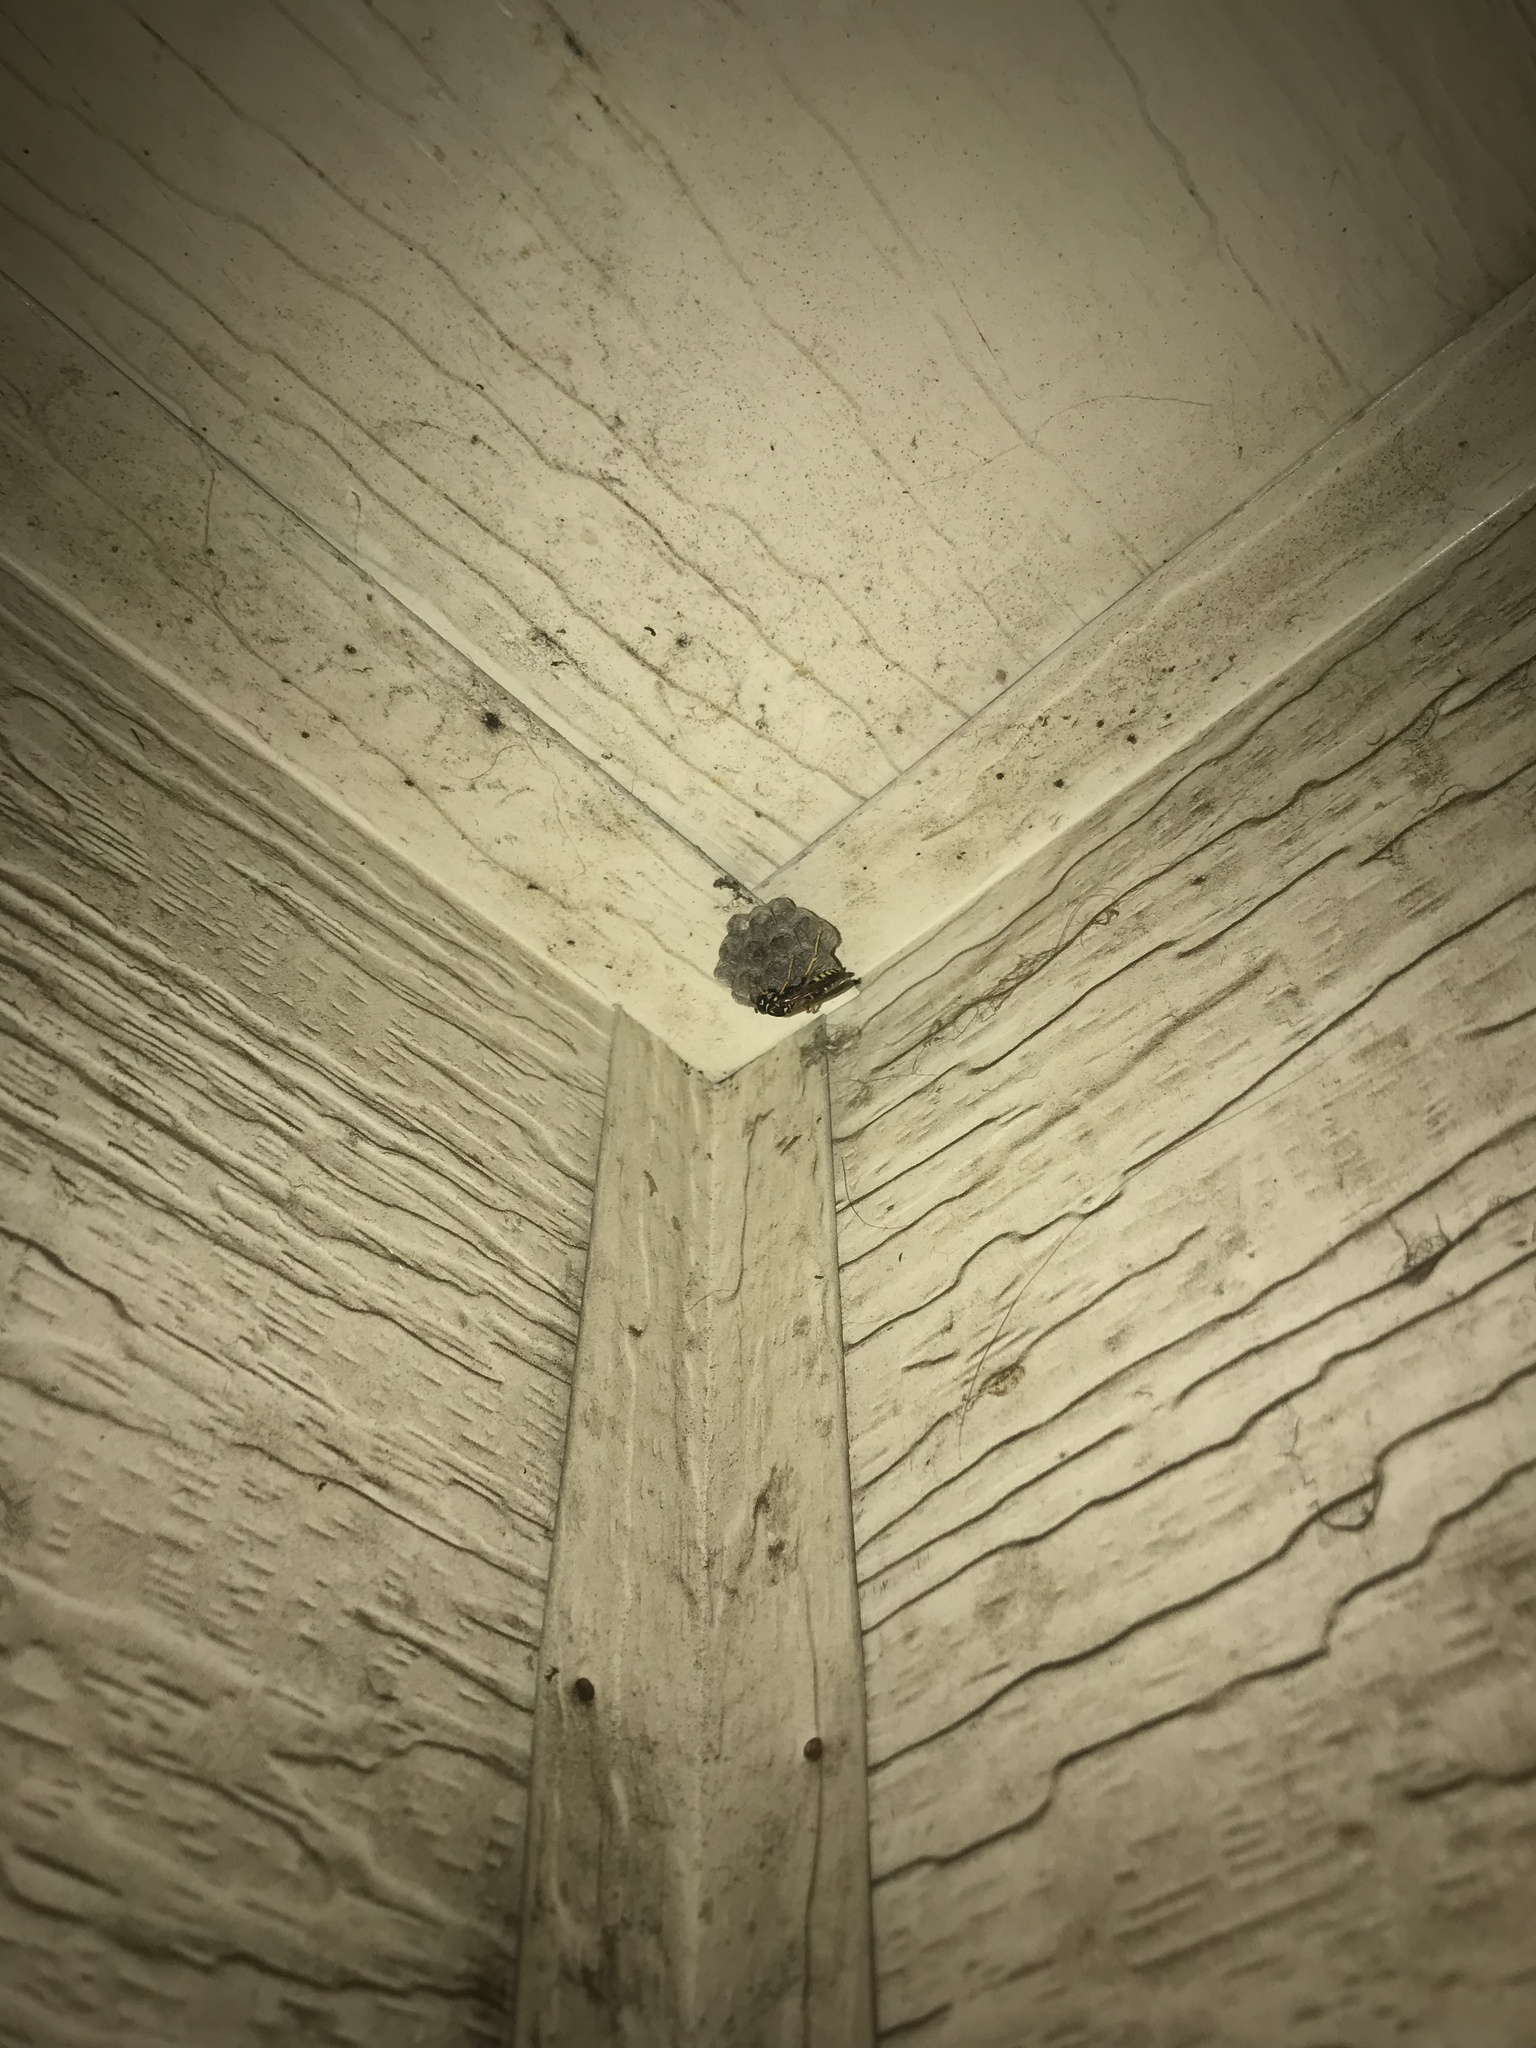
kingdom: Animalia
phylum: Arthropoda
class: Insecta
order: Hymenoptera
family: Eumenidae
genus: Polistes
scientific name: Polistes dominula
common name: Paper wasp
